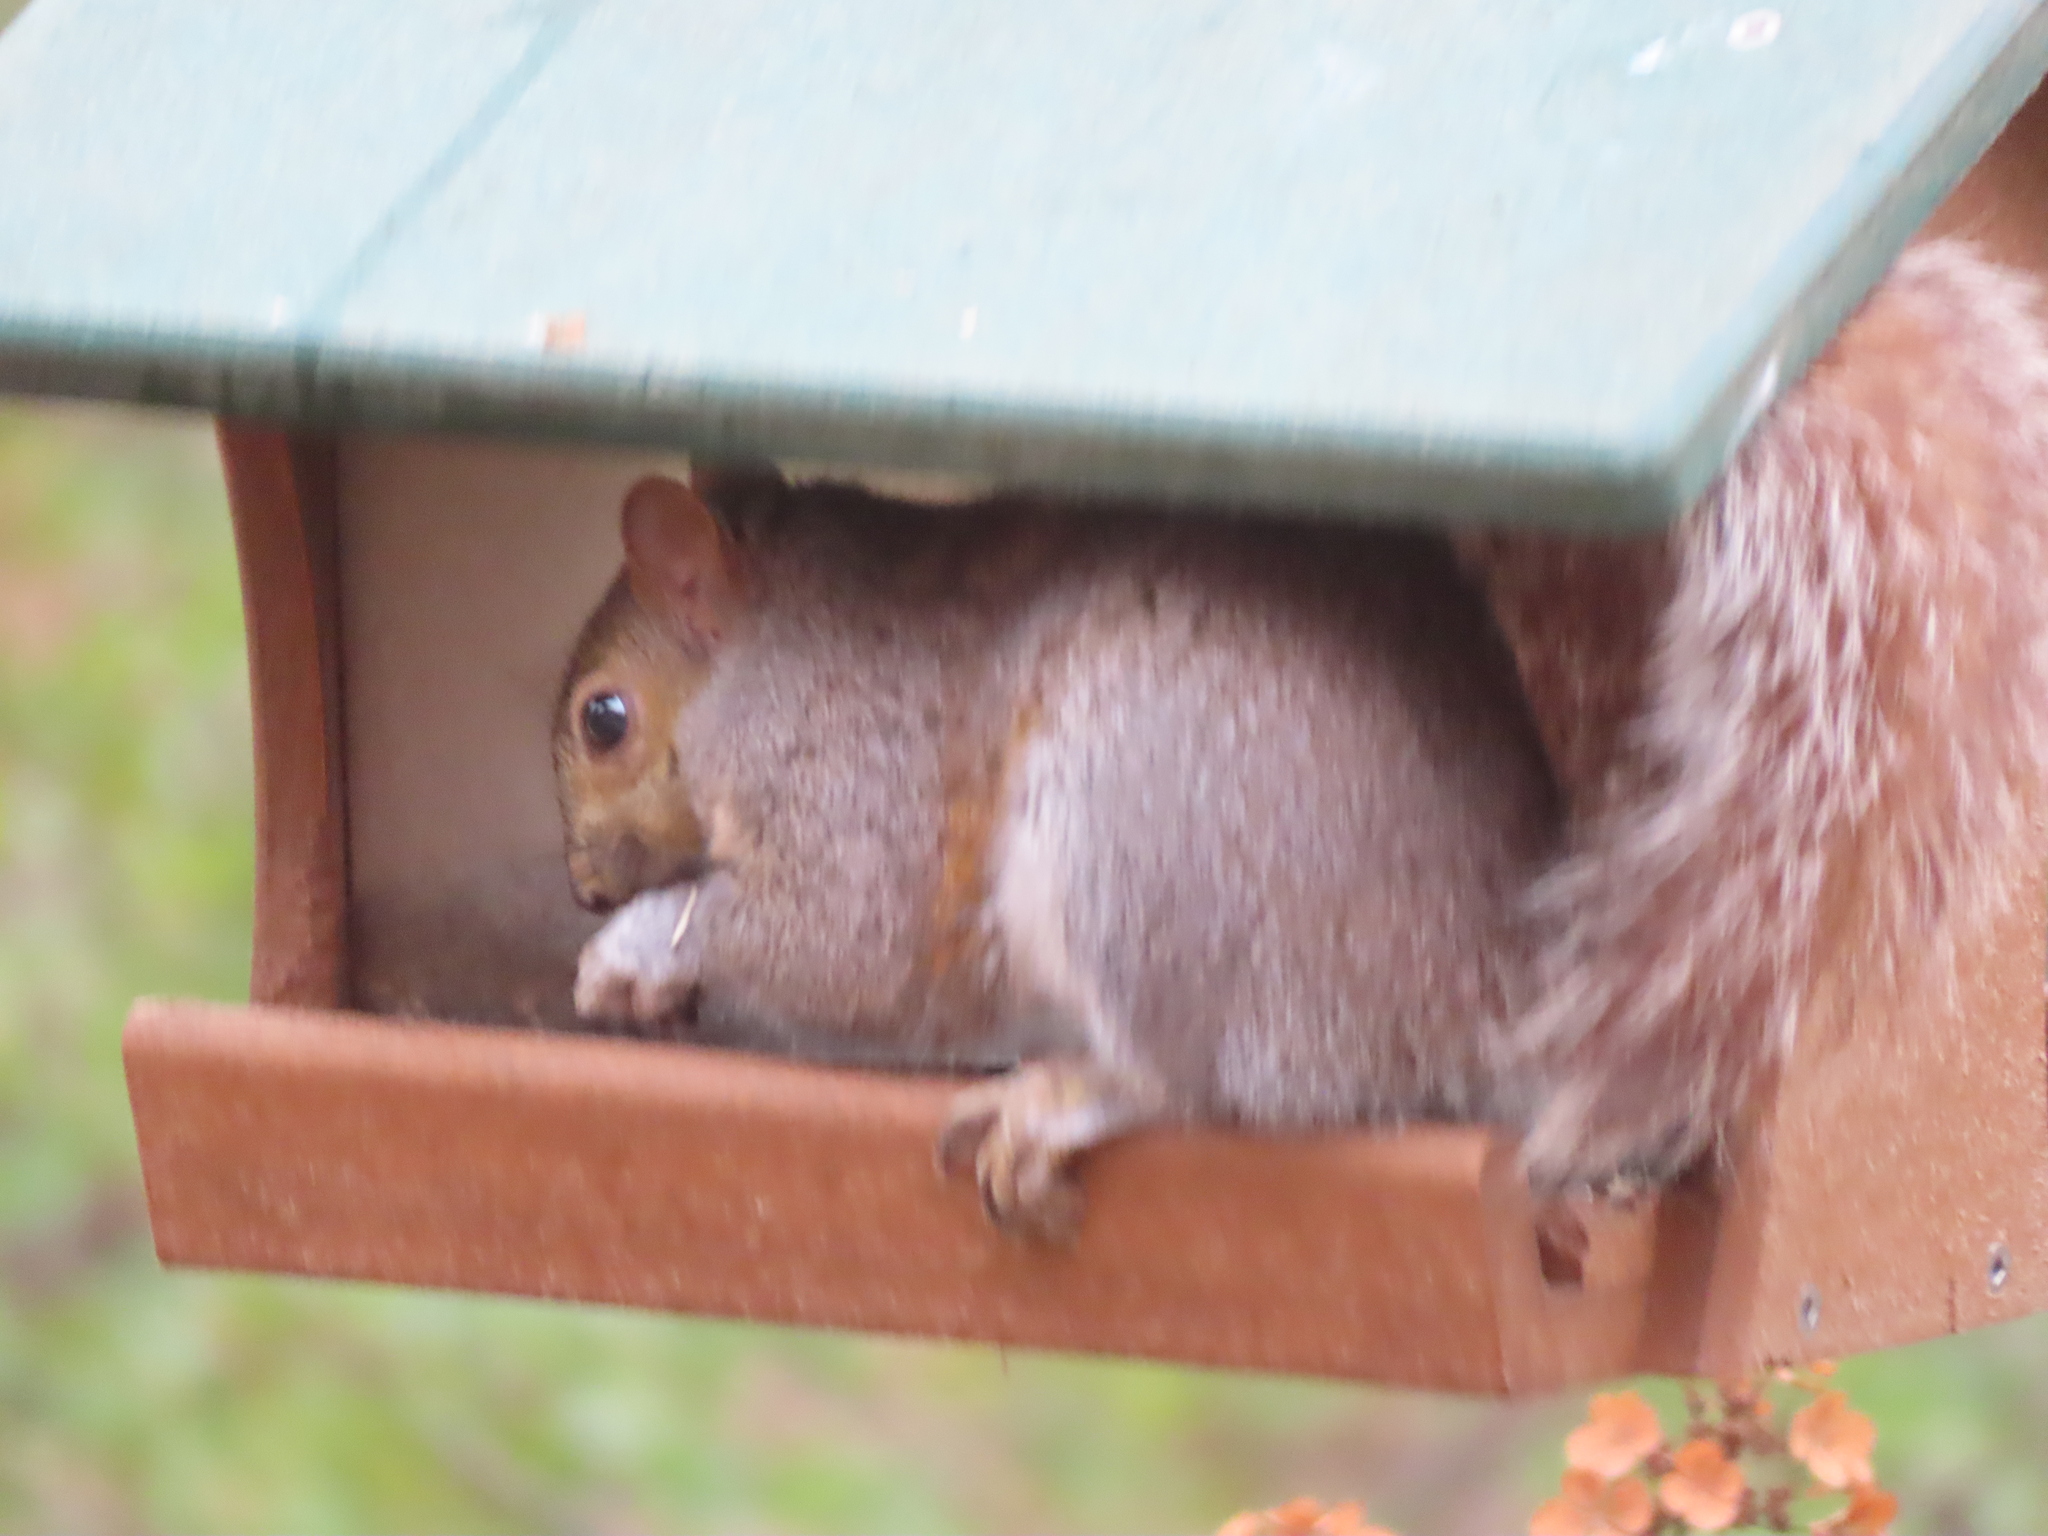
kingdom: Animalia
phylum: Chordata
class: Mammalia
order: Rodentia
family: Sciuridae
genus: Sciurus
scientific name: Sciurus carolinensis
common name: Eastern gray squirrel
